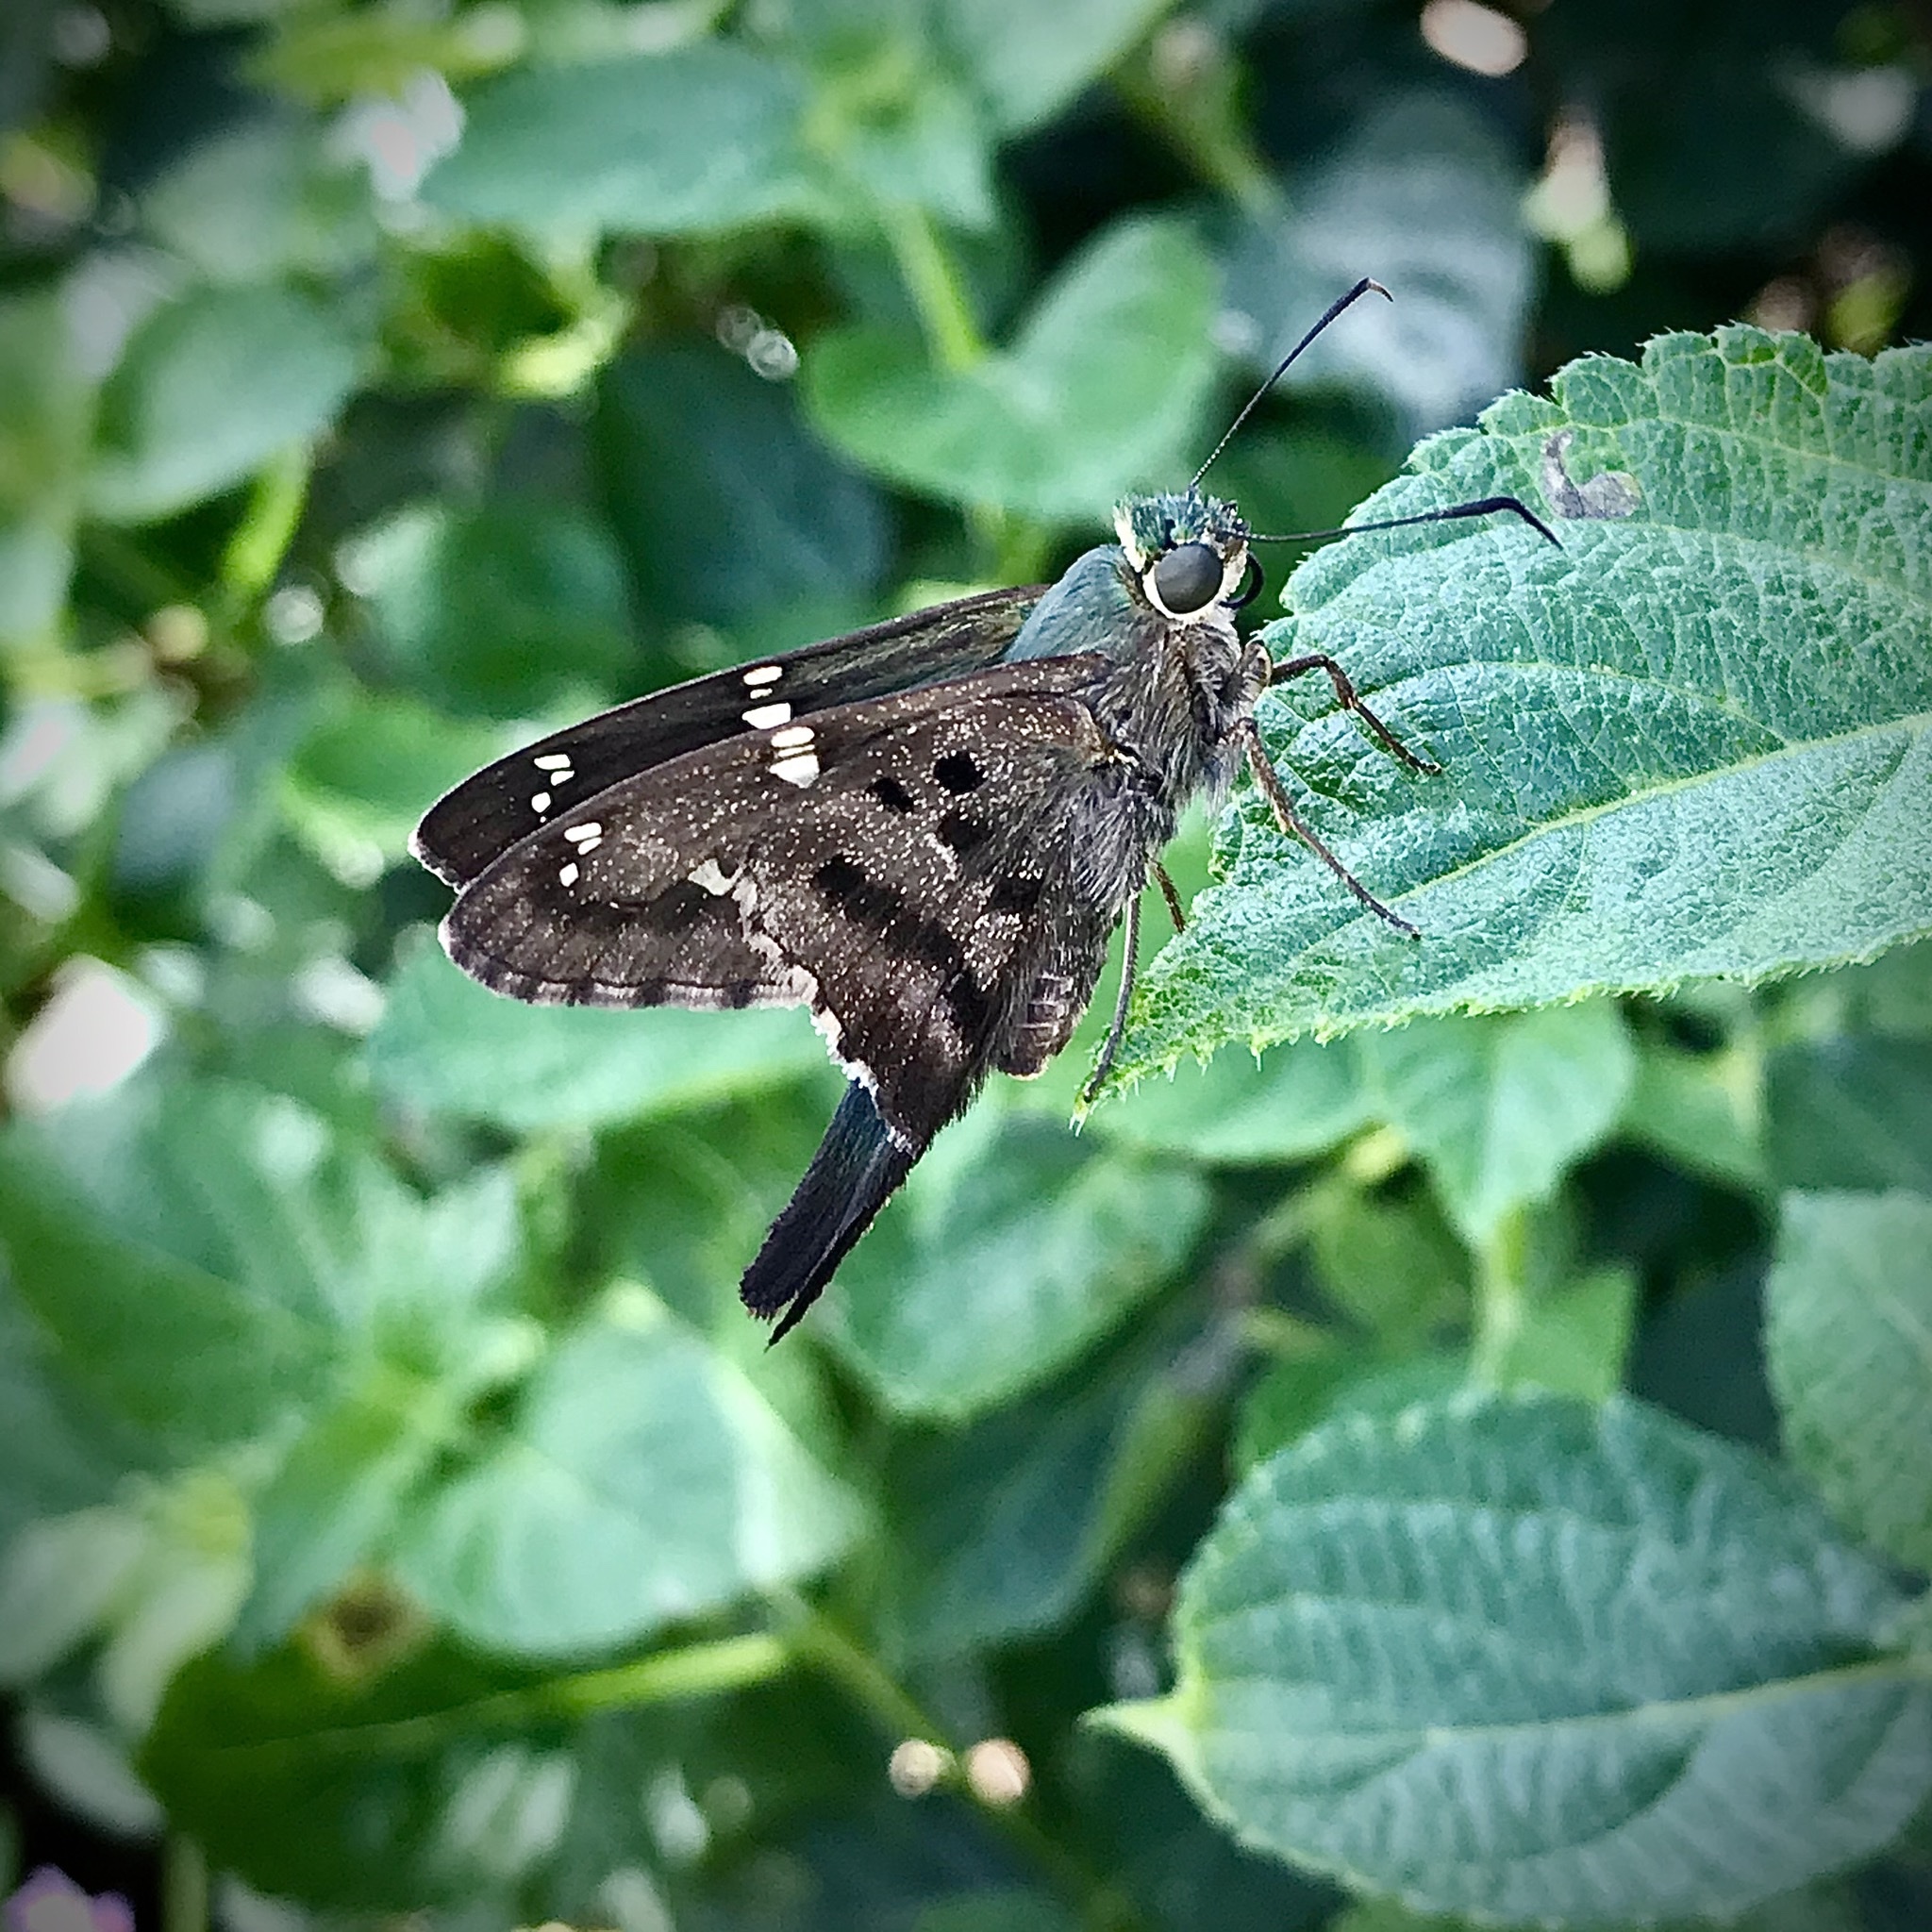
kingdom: Animalia
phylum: Arthropoda
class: Insecta
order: Lepidoptera
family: Hesperiidae
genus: Urbanus
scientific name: Urbanus proteus
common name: Long-tailed skipper
